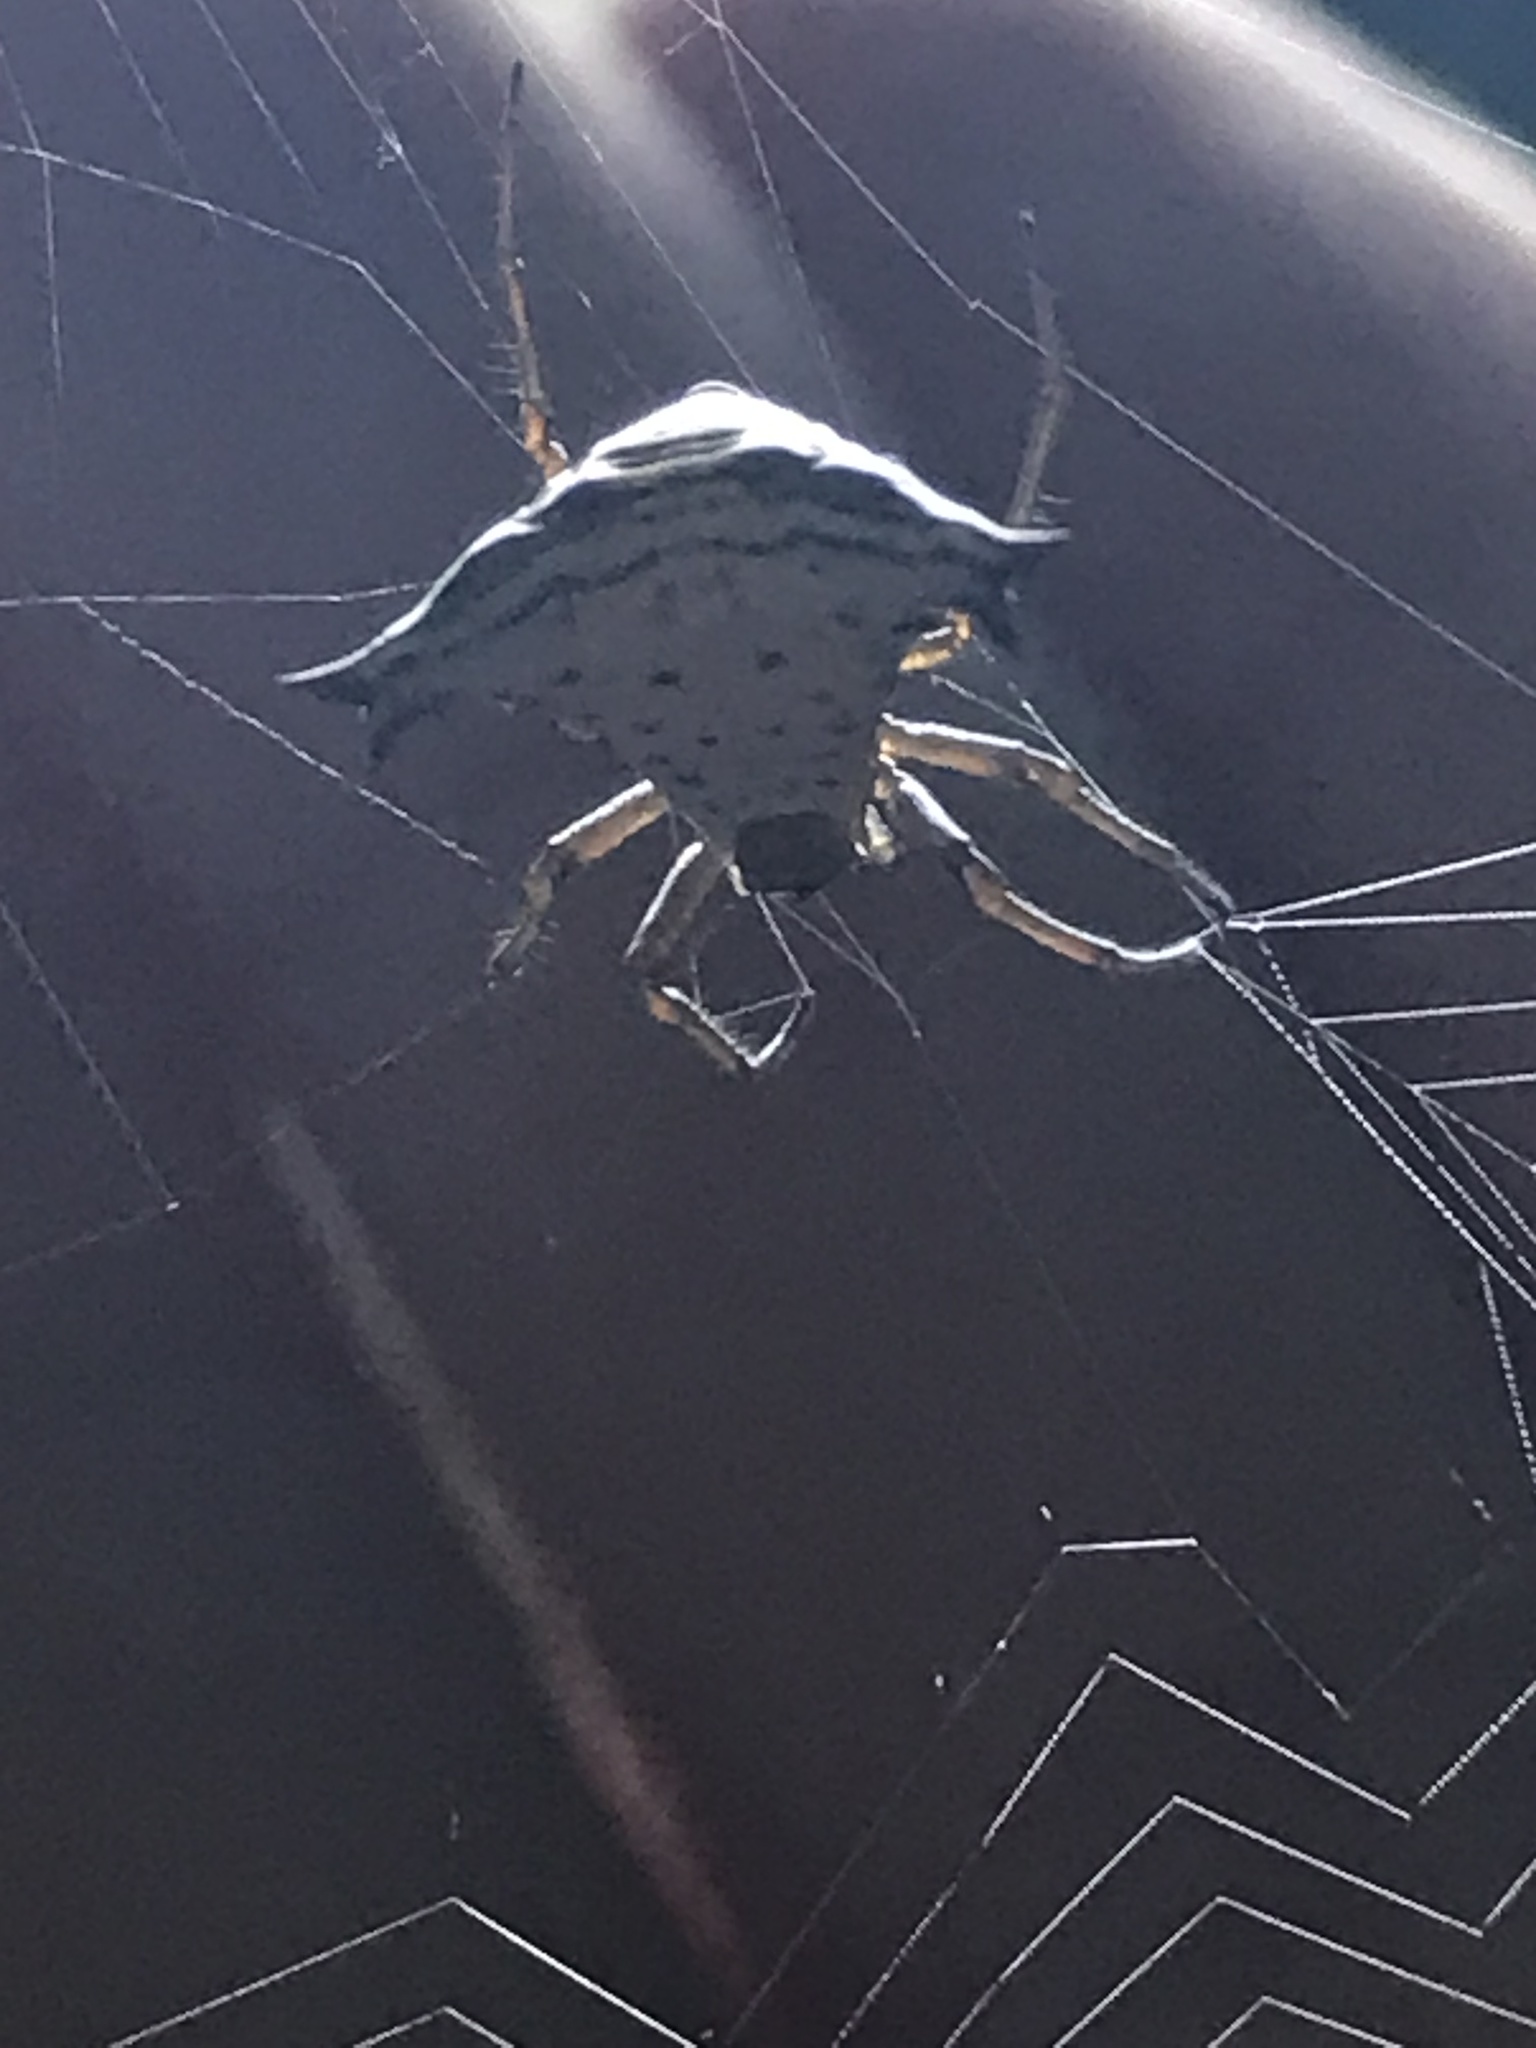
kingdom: Animalia
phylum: Arthropoda
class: Arachnida
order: Araneae
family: Araneidae
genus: Micrathena
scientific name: Micrathena lucasi
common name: Orb weavers
